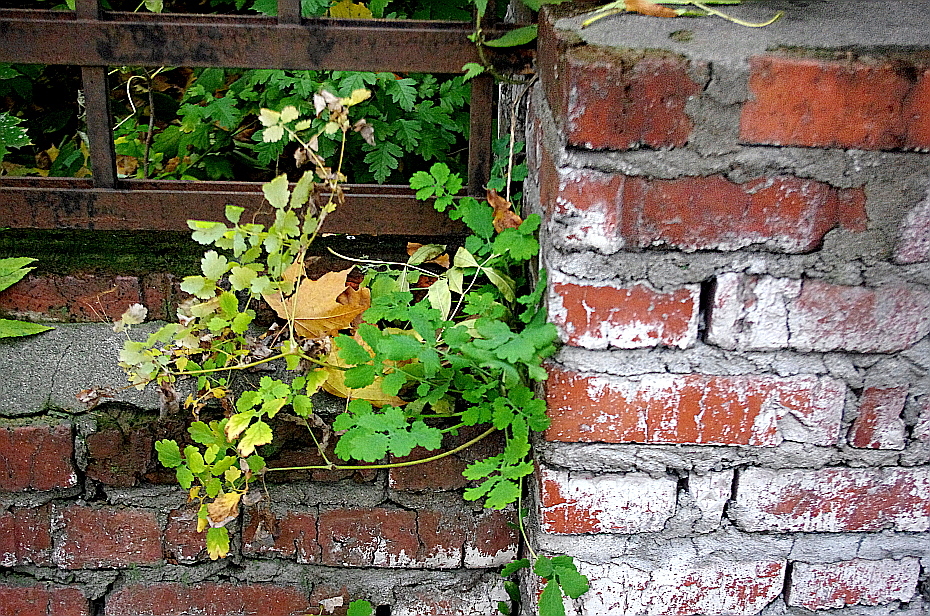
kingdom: Plantae
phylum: Tracheophyta
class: Magnoliopsida
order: Ranunculales
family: Papaveraceae
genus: Chelidonium
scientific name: Chelidonium majus
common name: Greater celandine
